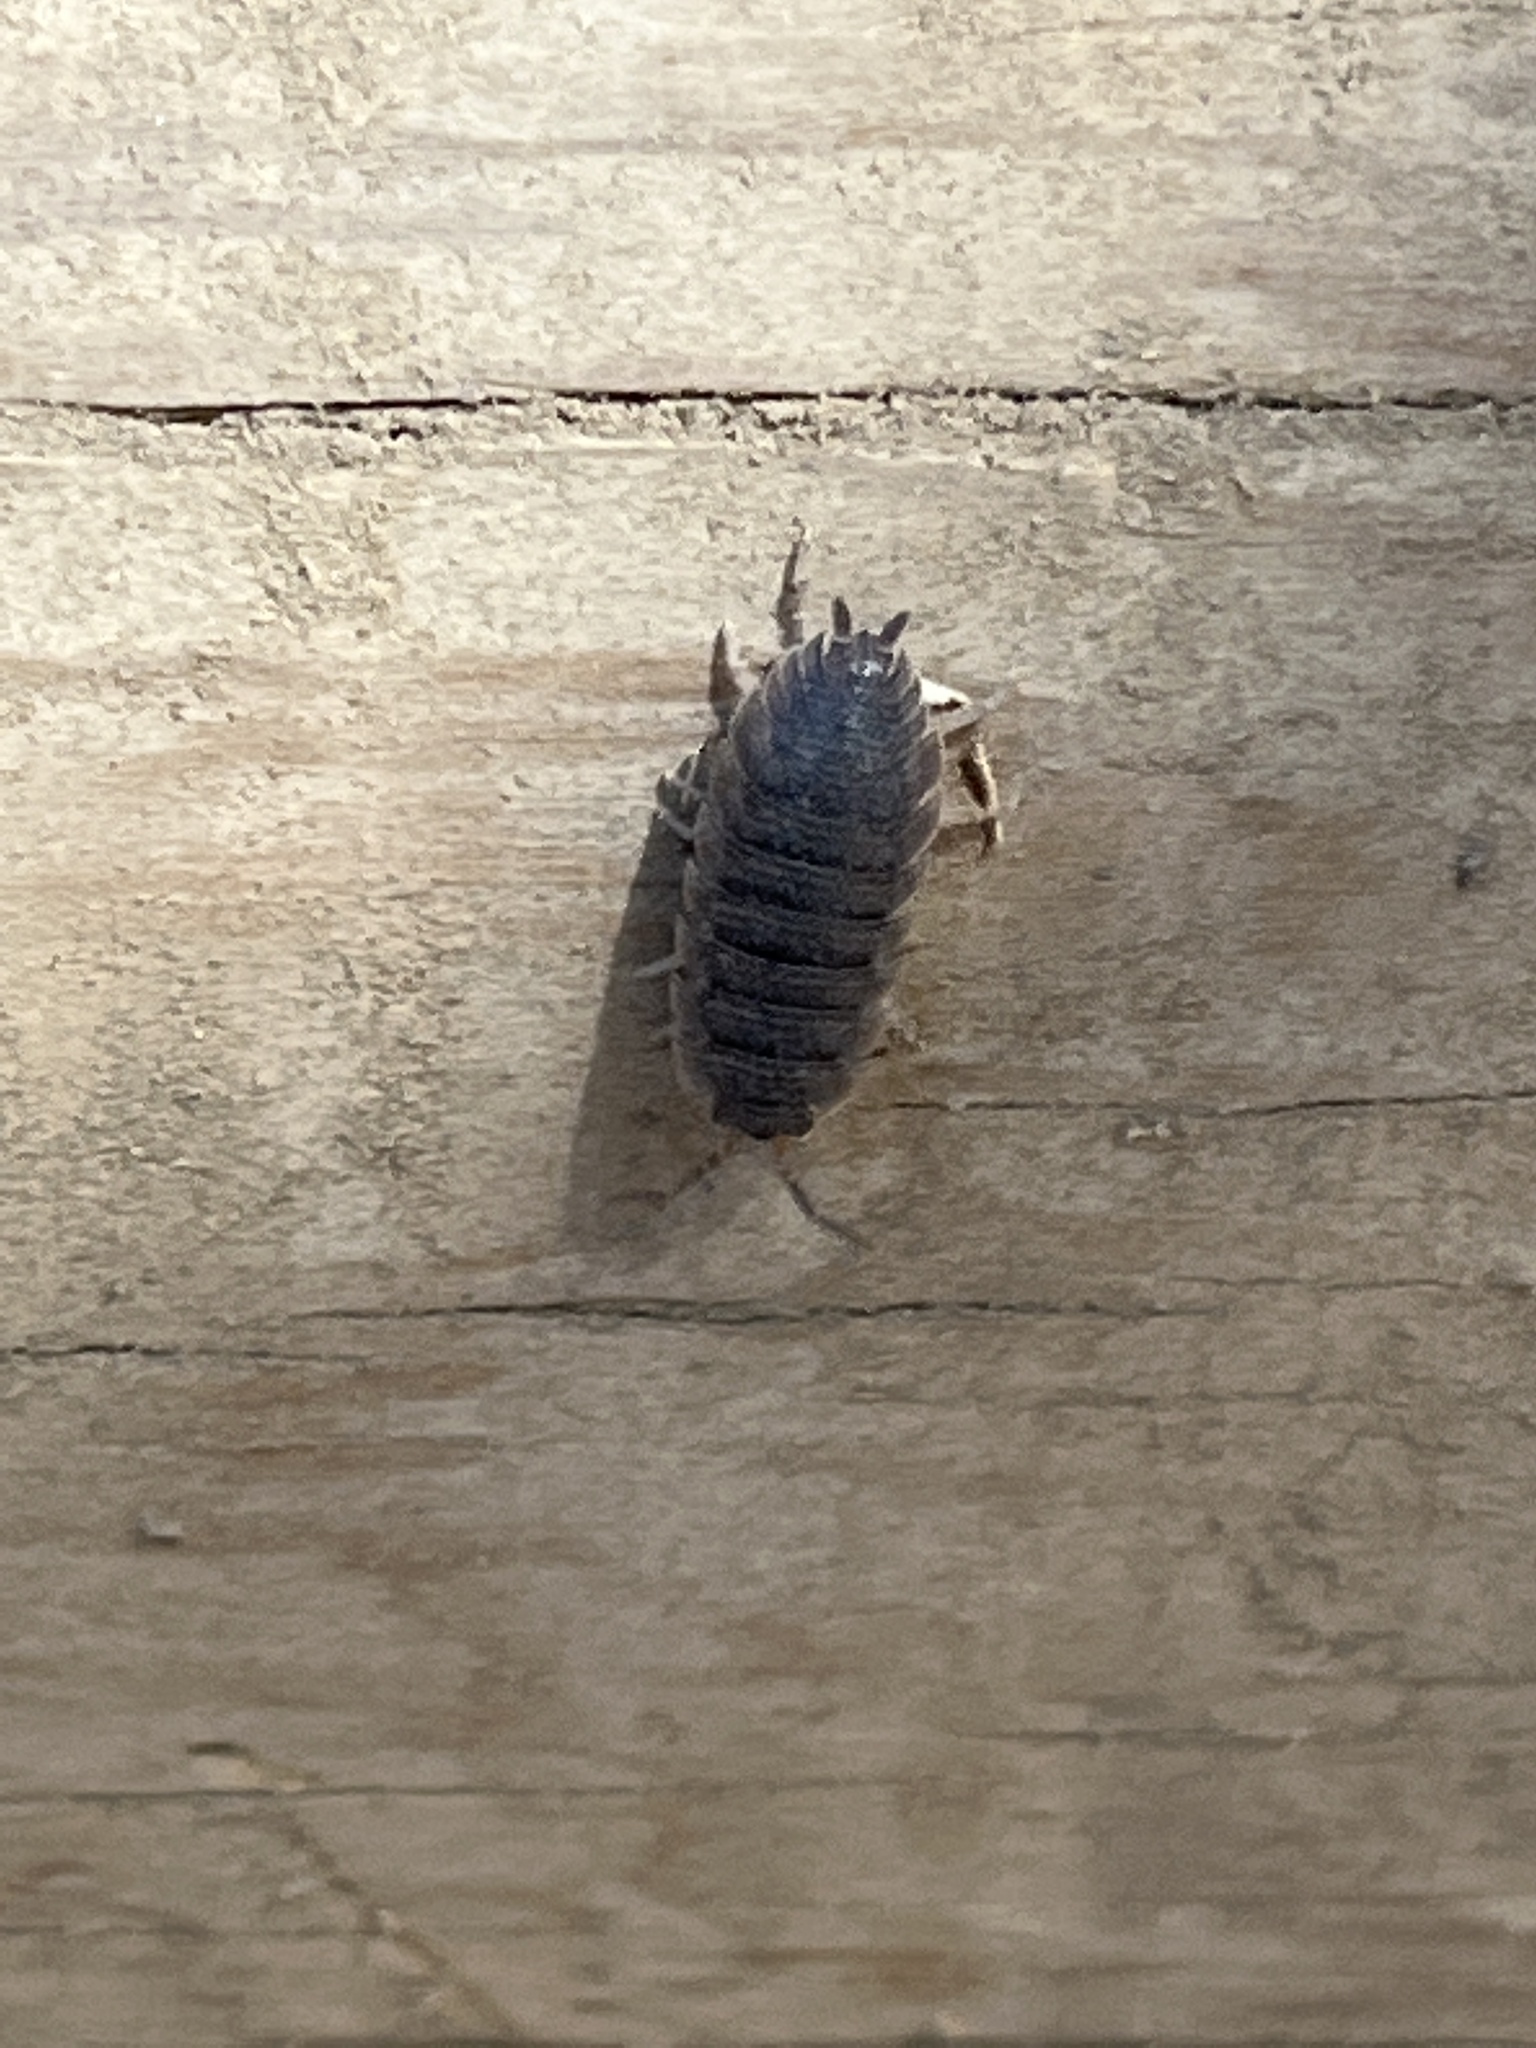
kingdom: Animalia
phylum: Arthropoda
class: Malacostraca
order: Isopoda
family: Porcellionidae
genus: Porcellio
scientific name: Porcellio scaber
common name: Common rough woodlouse
